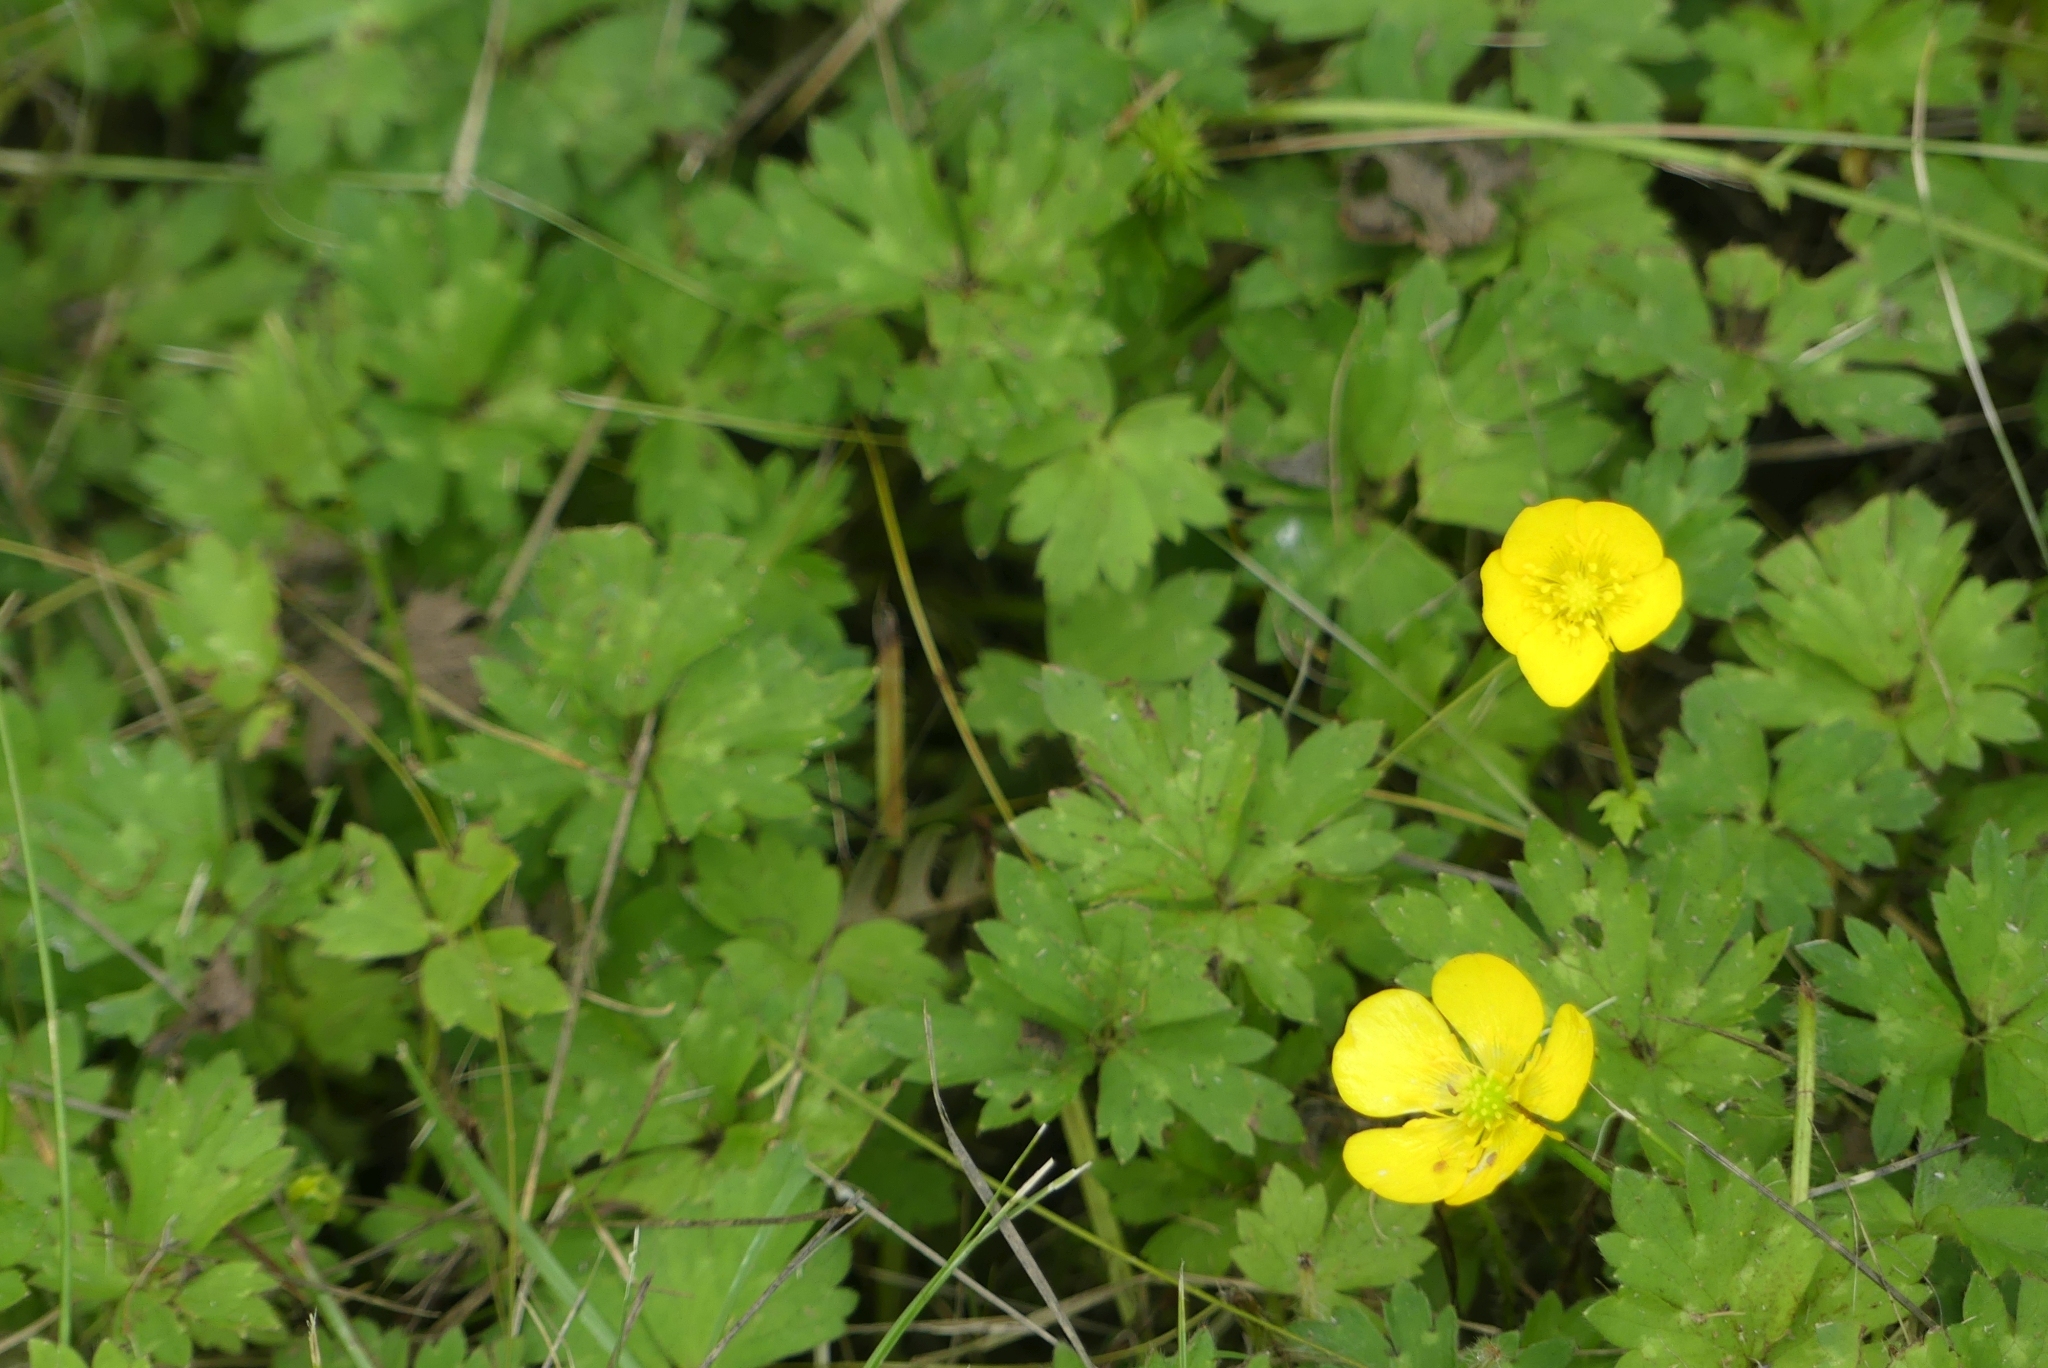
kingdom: Plantae
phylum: Tracheophyta
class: Magnoliopsida
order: Ranunculales
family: Ranunculaceae
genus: Ranunculus
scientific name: Ranunculus repens
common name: Creeping buttercup
